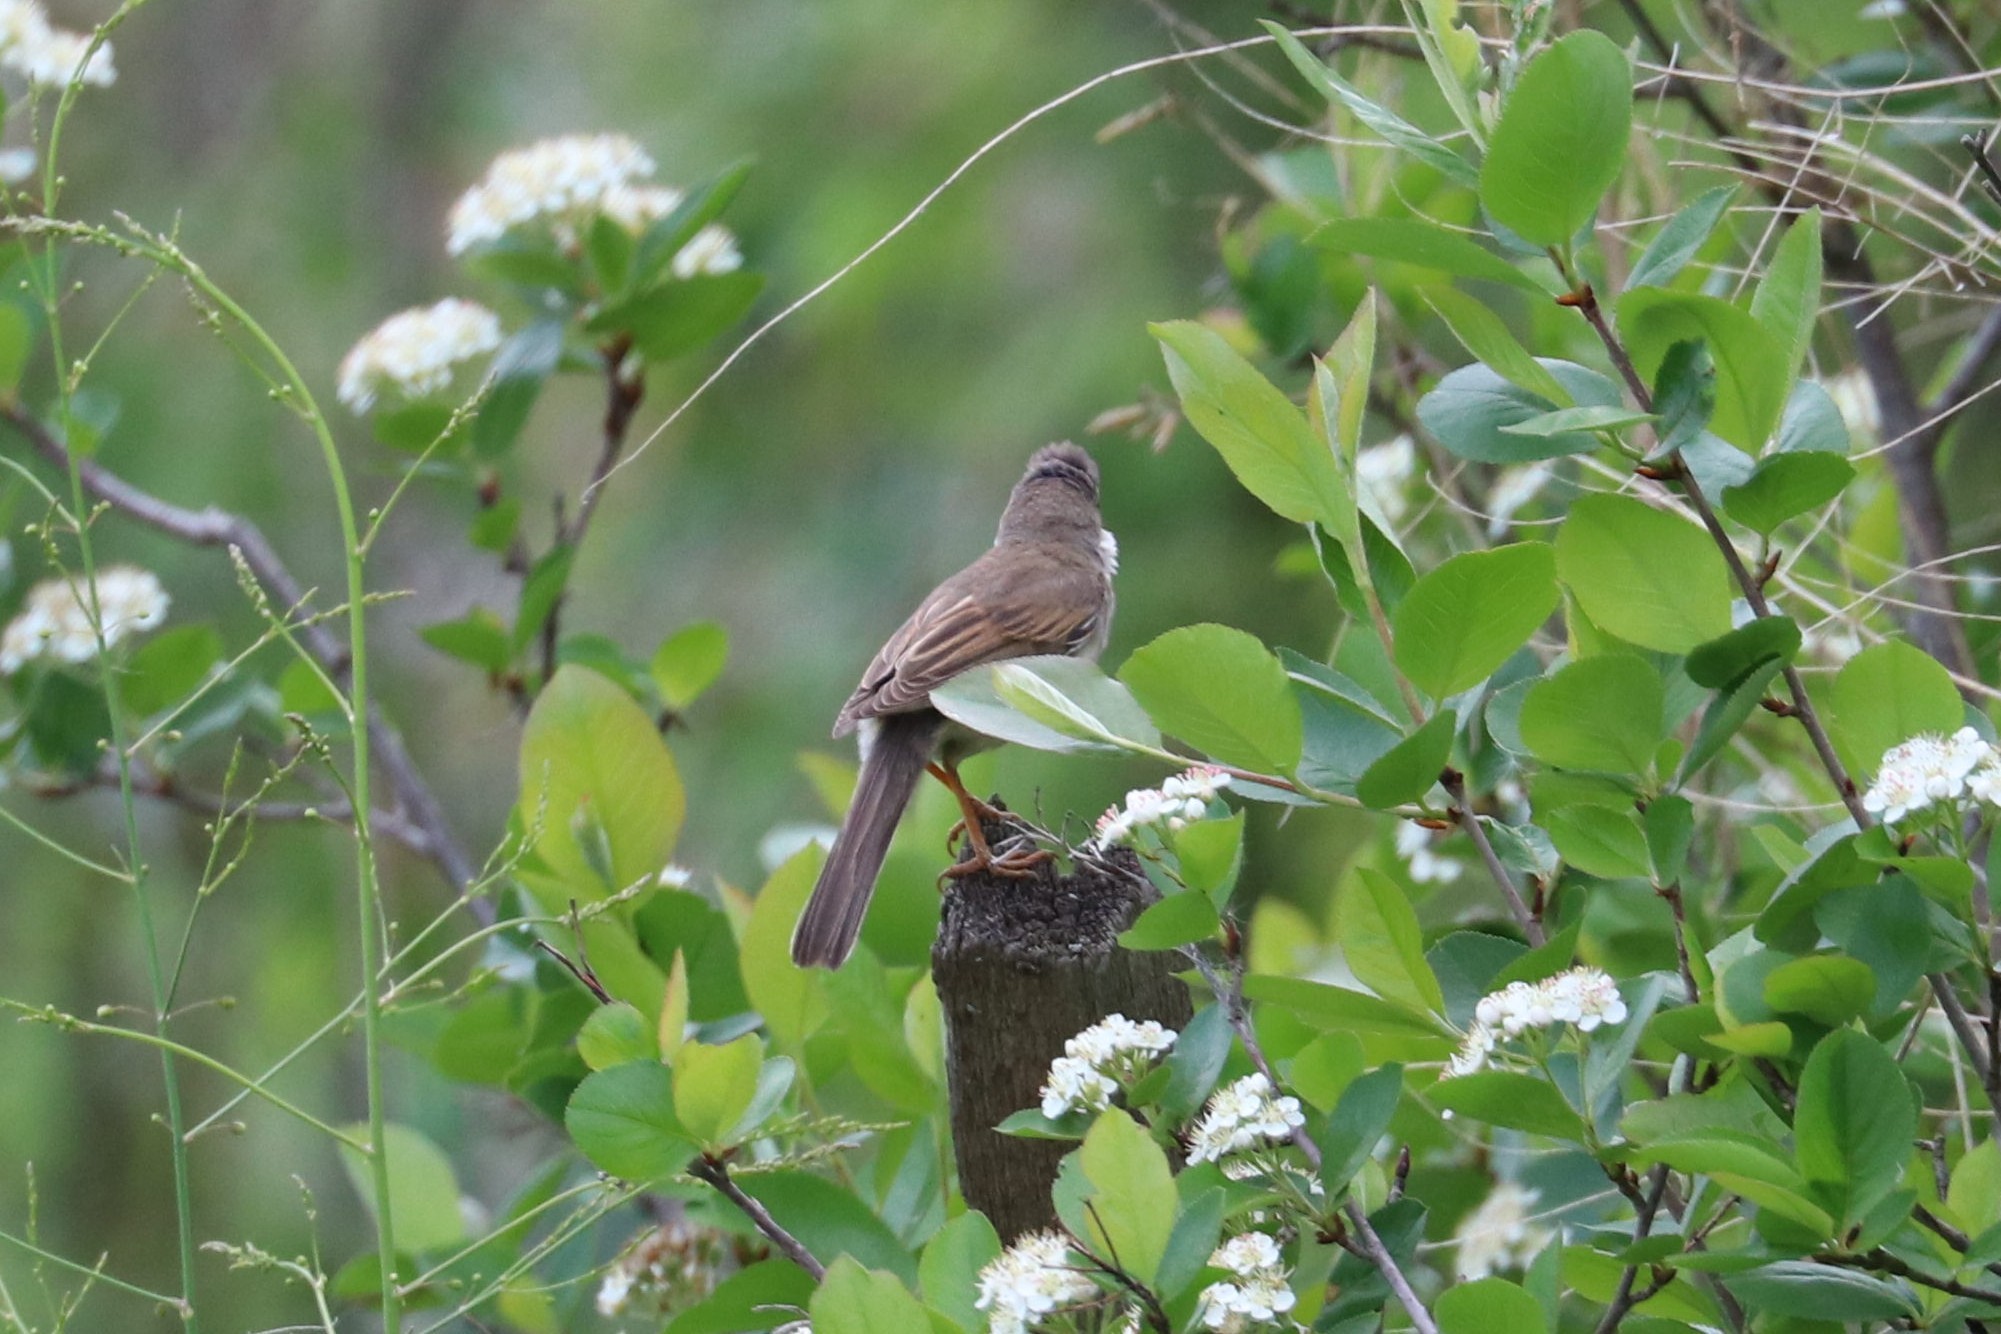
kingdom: Animalia
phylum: Chordata
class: Aves
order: Passeriformes
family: Sylviidae
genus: Sylvia
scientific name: Sylvia communis
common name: Common whitethroat
